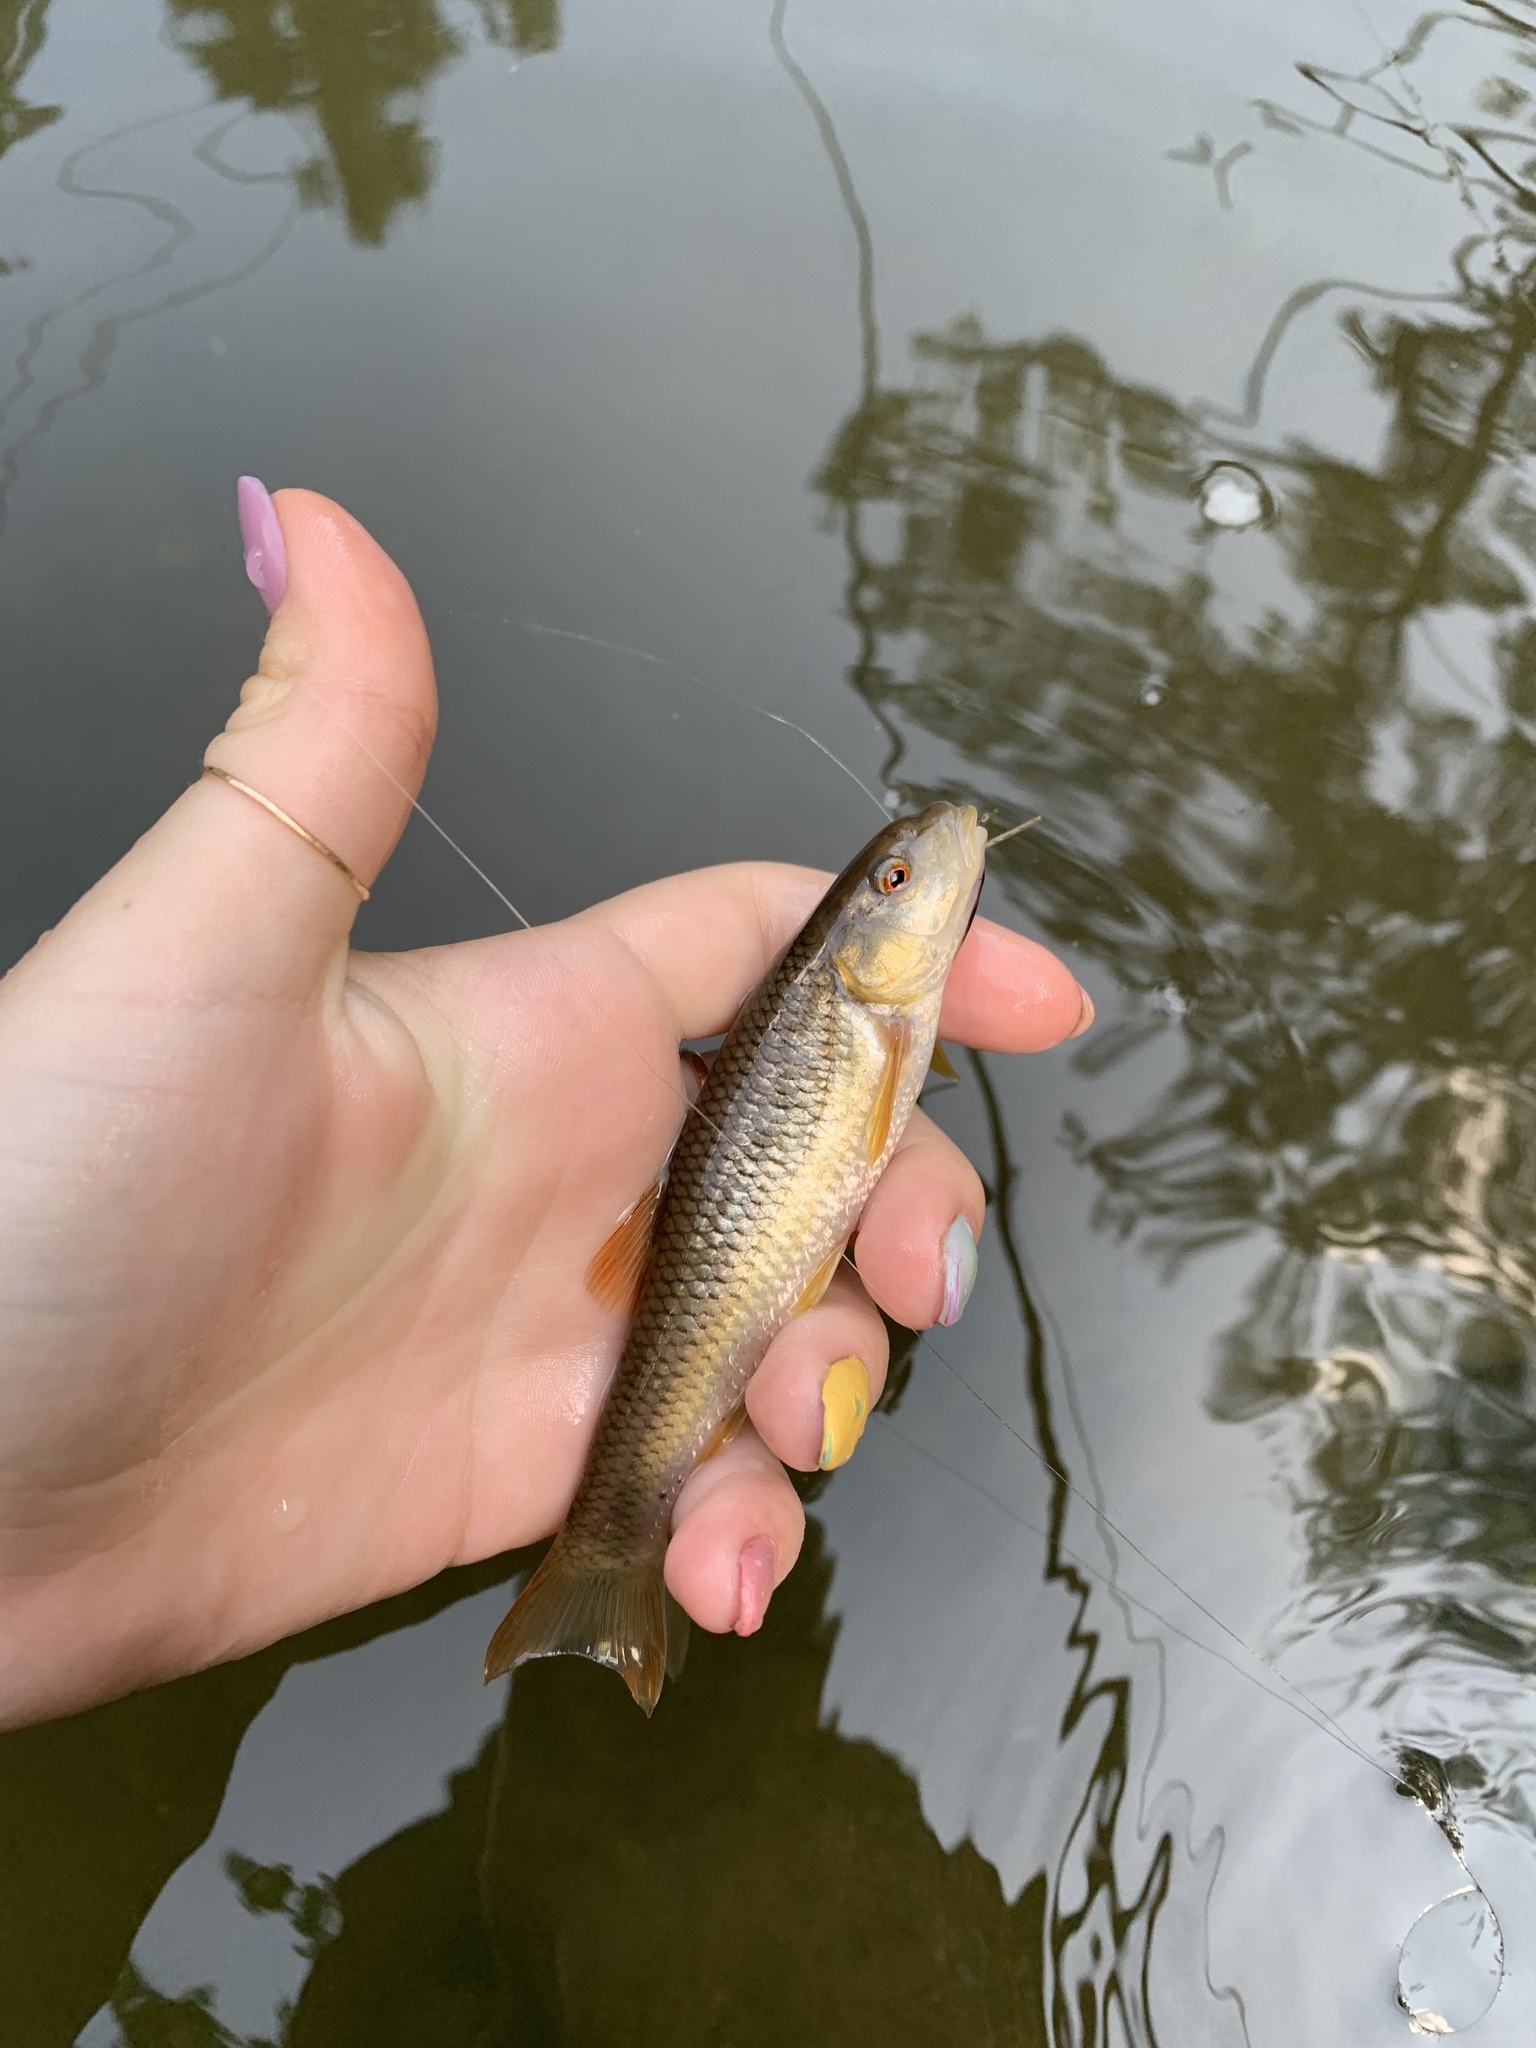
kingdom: Animalia
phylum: Chordata
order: Cypriniformes
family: Cyprinidae
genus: Nocomis
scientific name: Nocomis leptocephalus
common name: Bluehead chub
